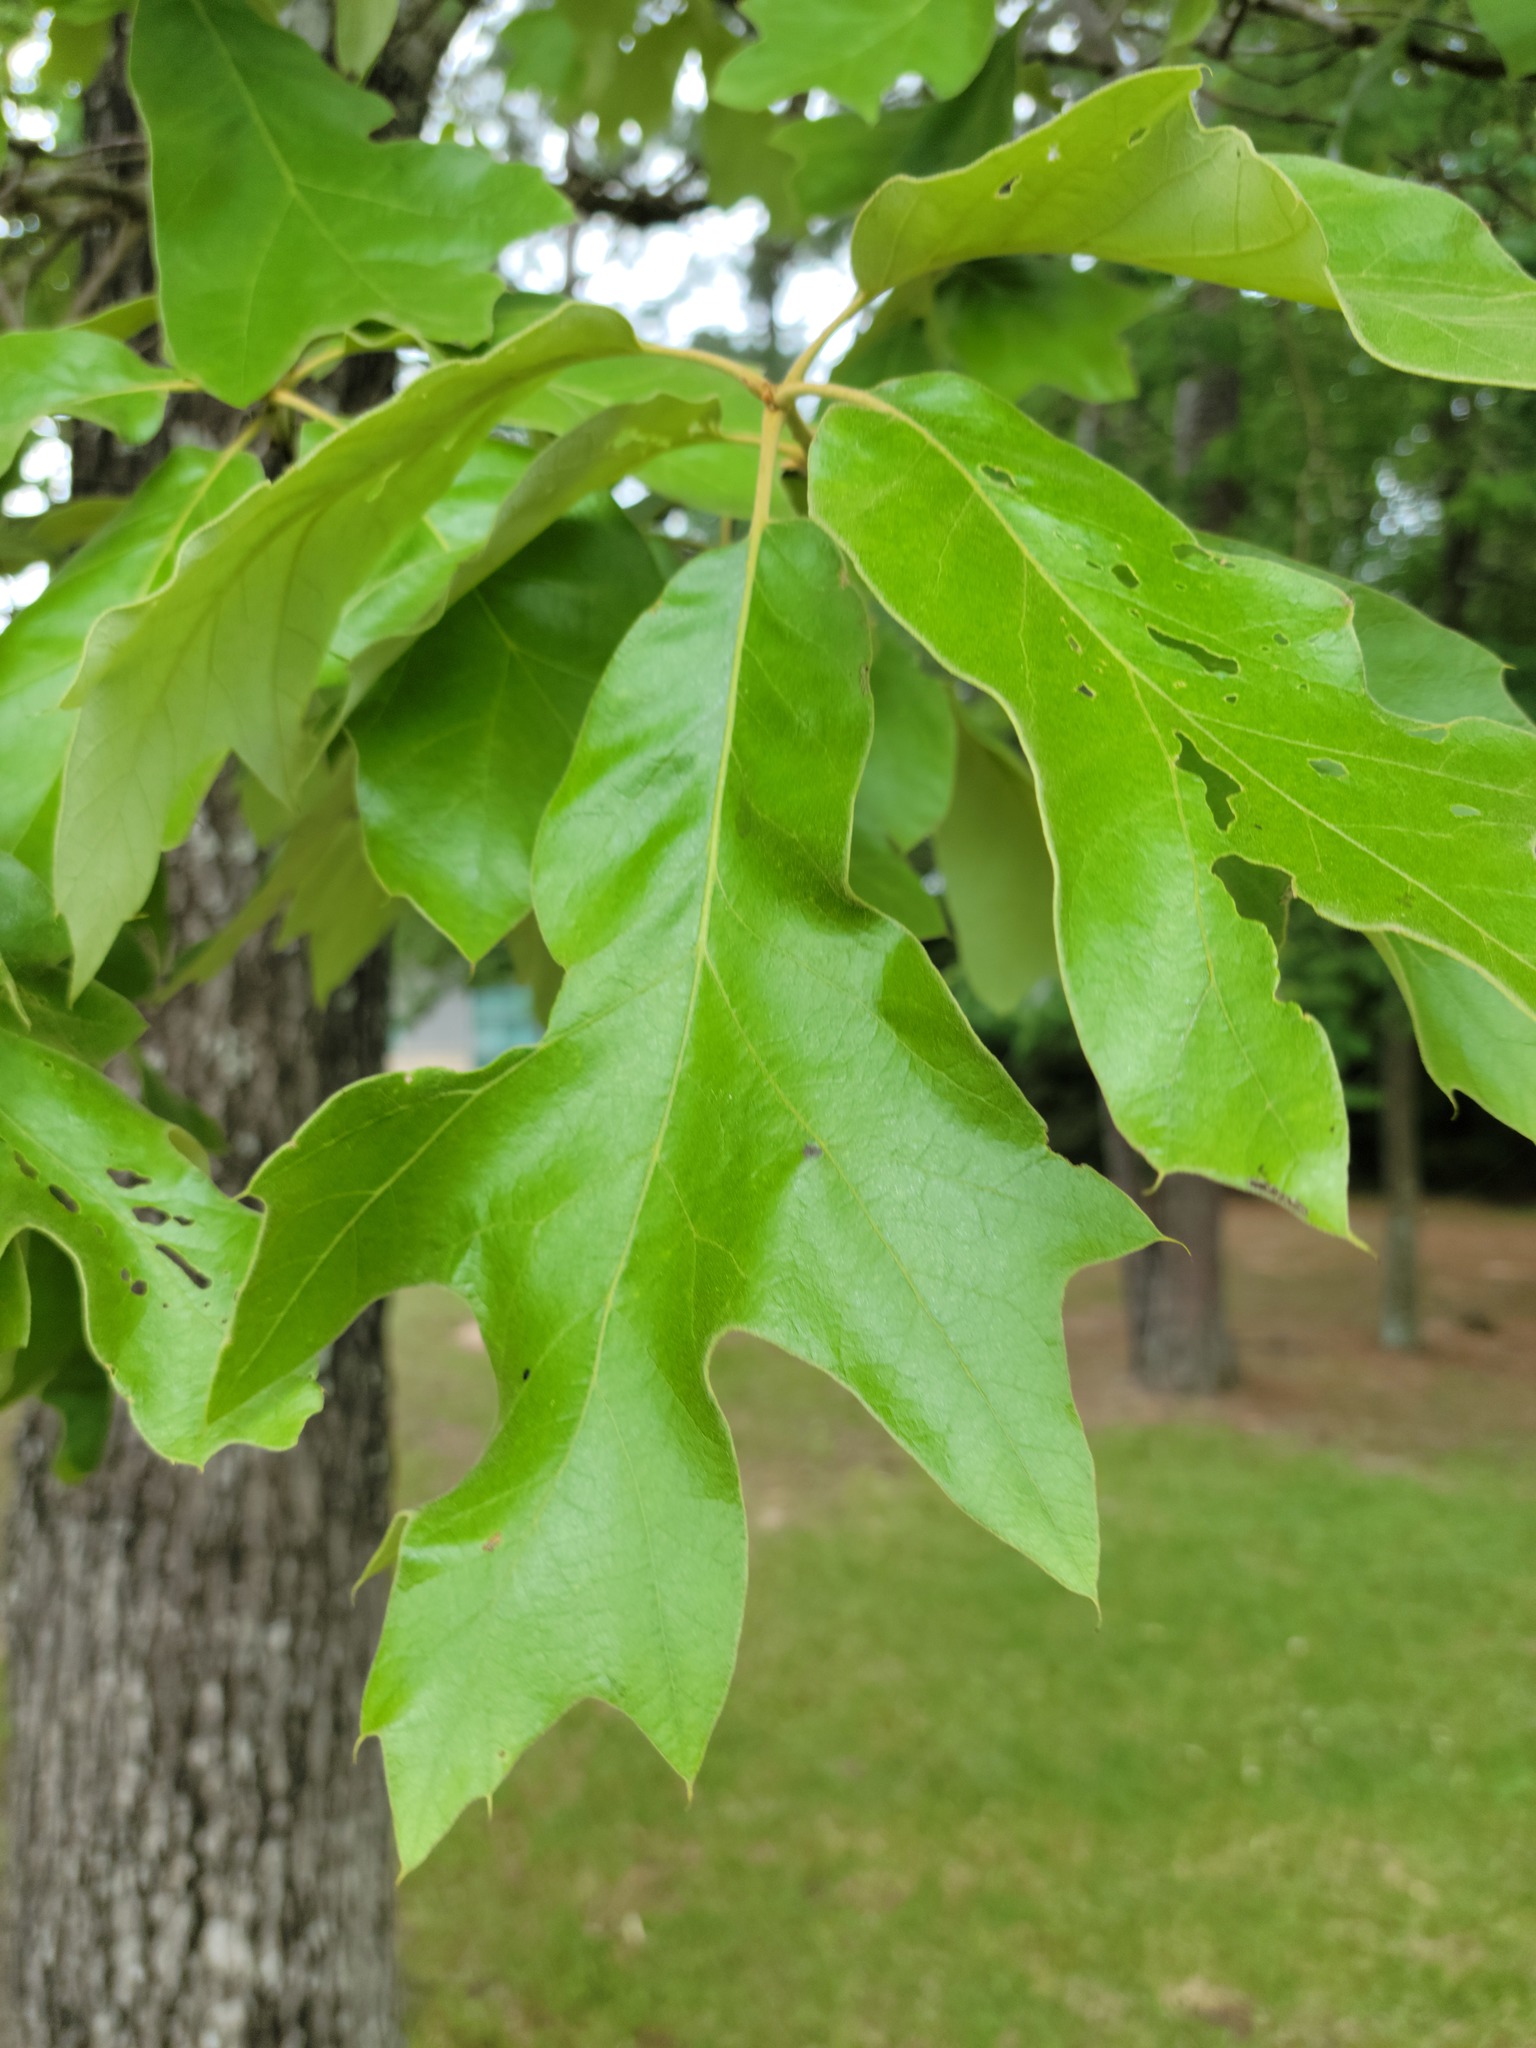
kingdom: Plantae
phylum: Tracheophyta
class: Magnoliopsida
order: Fagales
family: Fagaceae
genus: Quercus
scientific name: Quercus falcata
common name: Southern red oak
